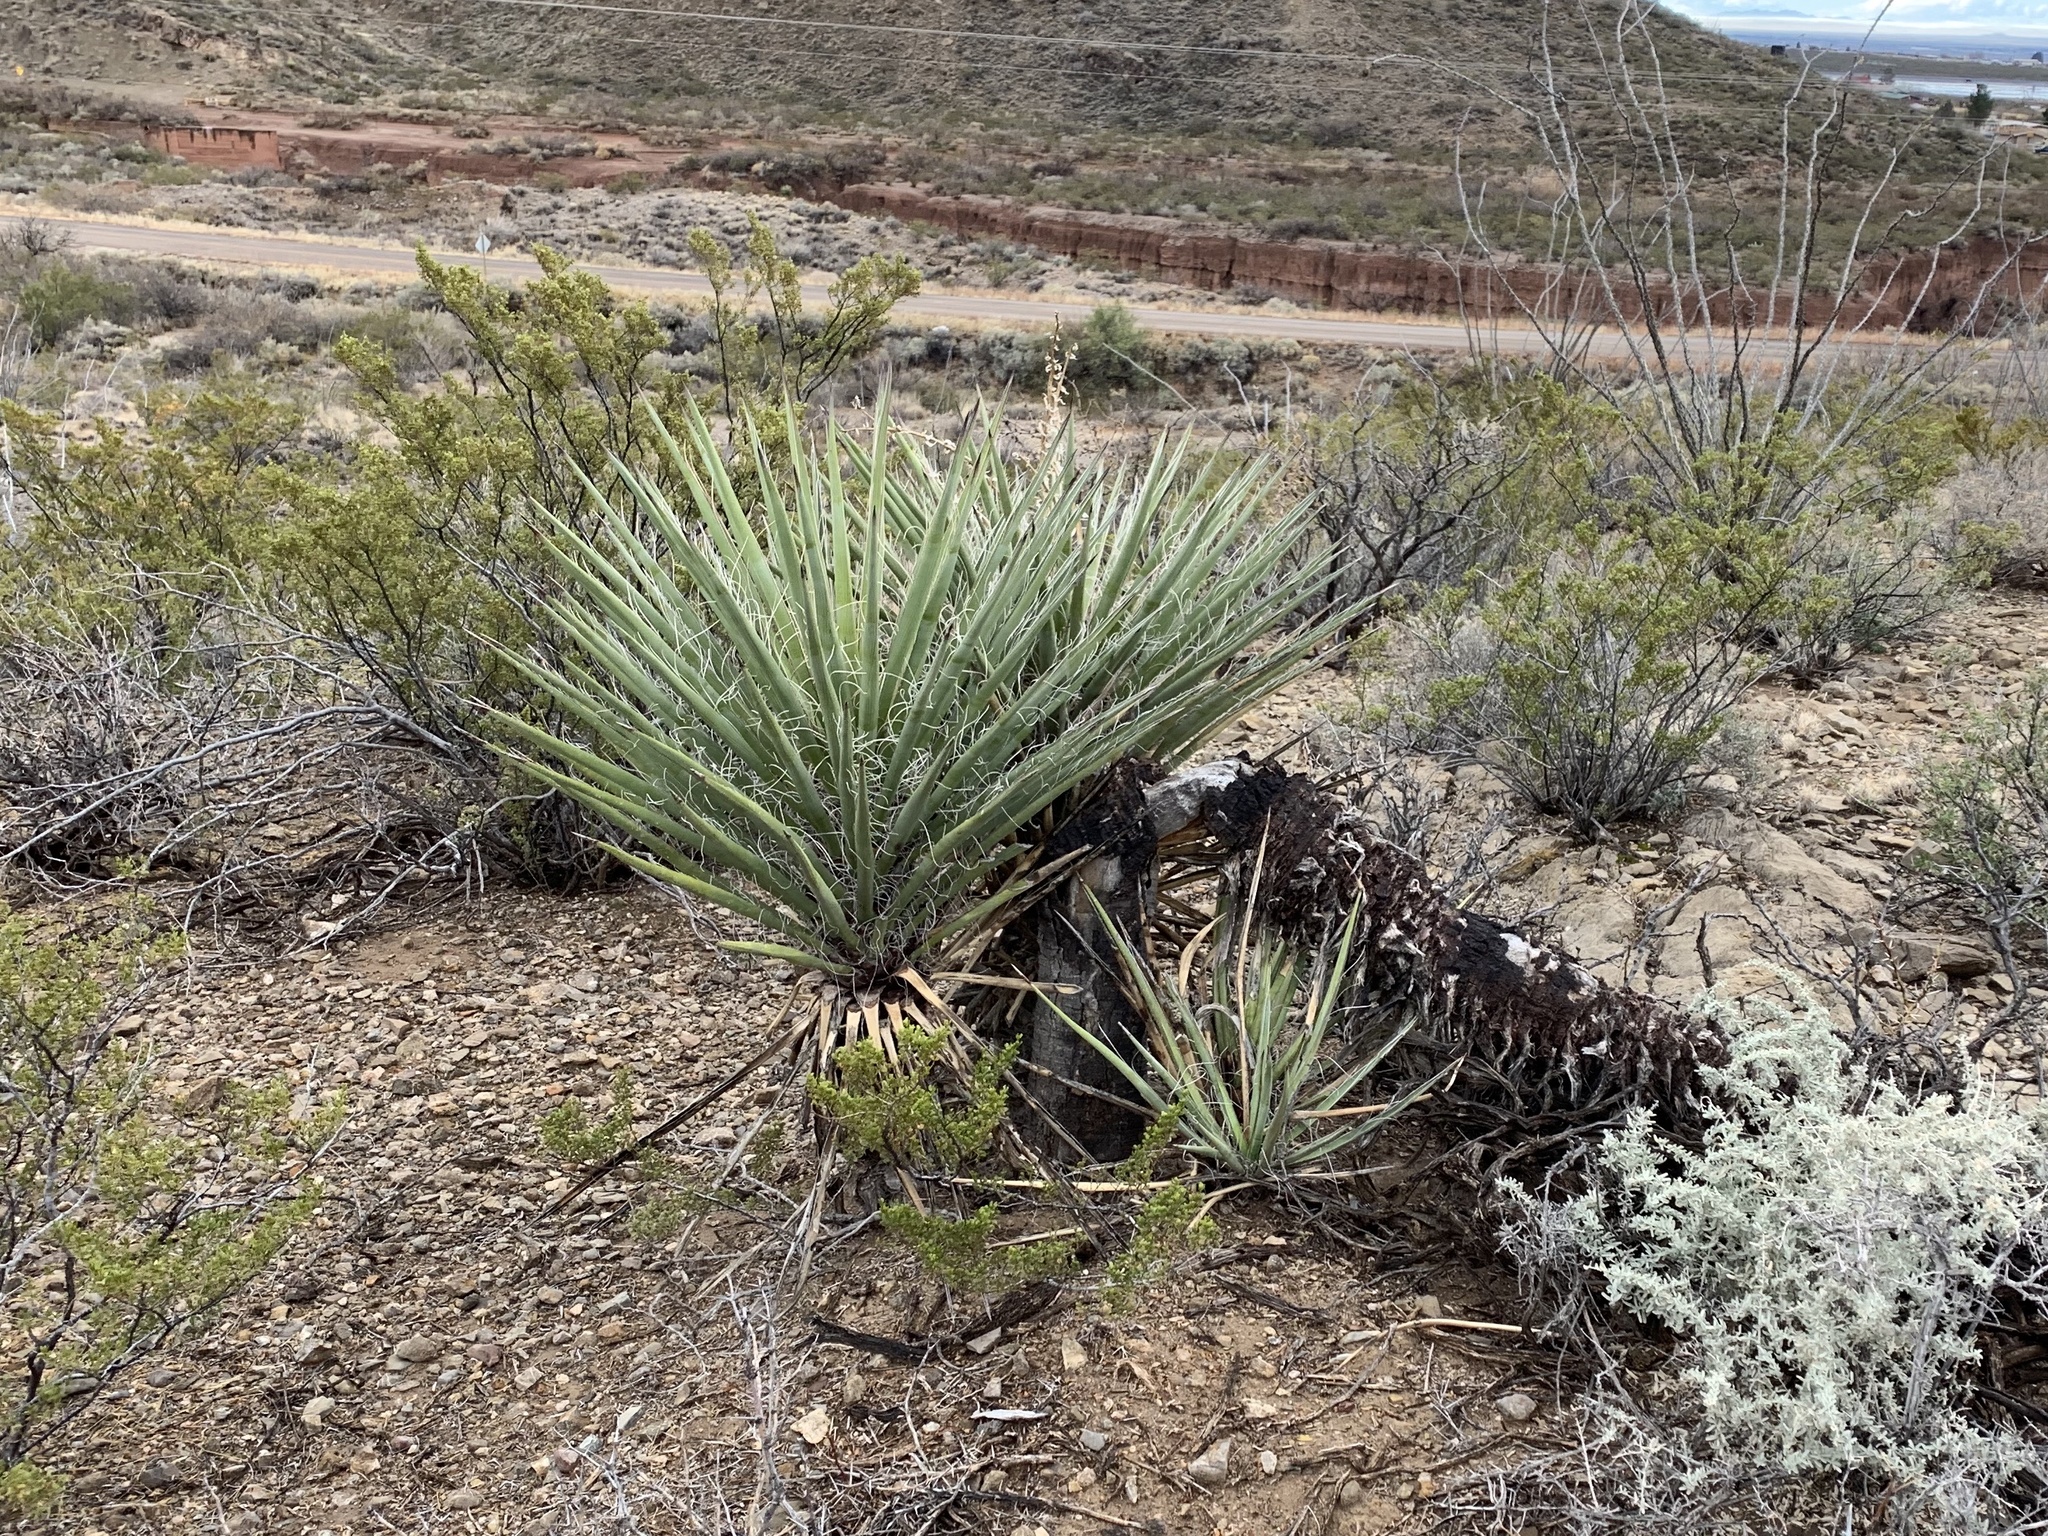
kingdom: Plantae
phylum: Tracheophyta
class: Liliopsida
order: Asparagales
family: Asparagaceae
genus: Yucca
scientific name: Yucca treculiana
